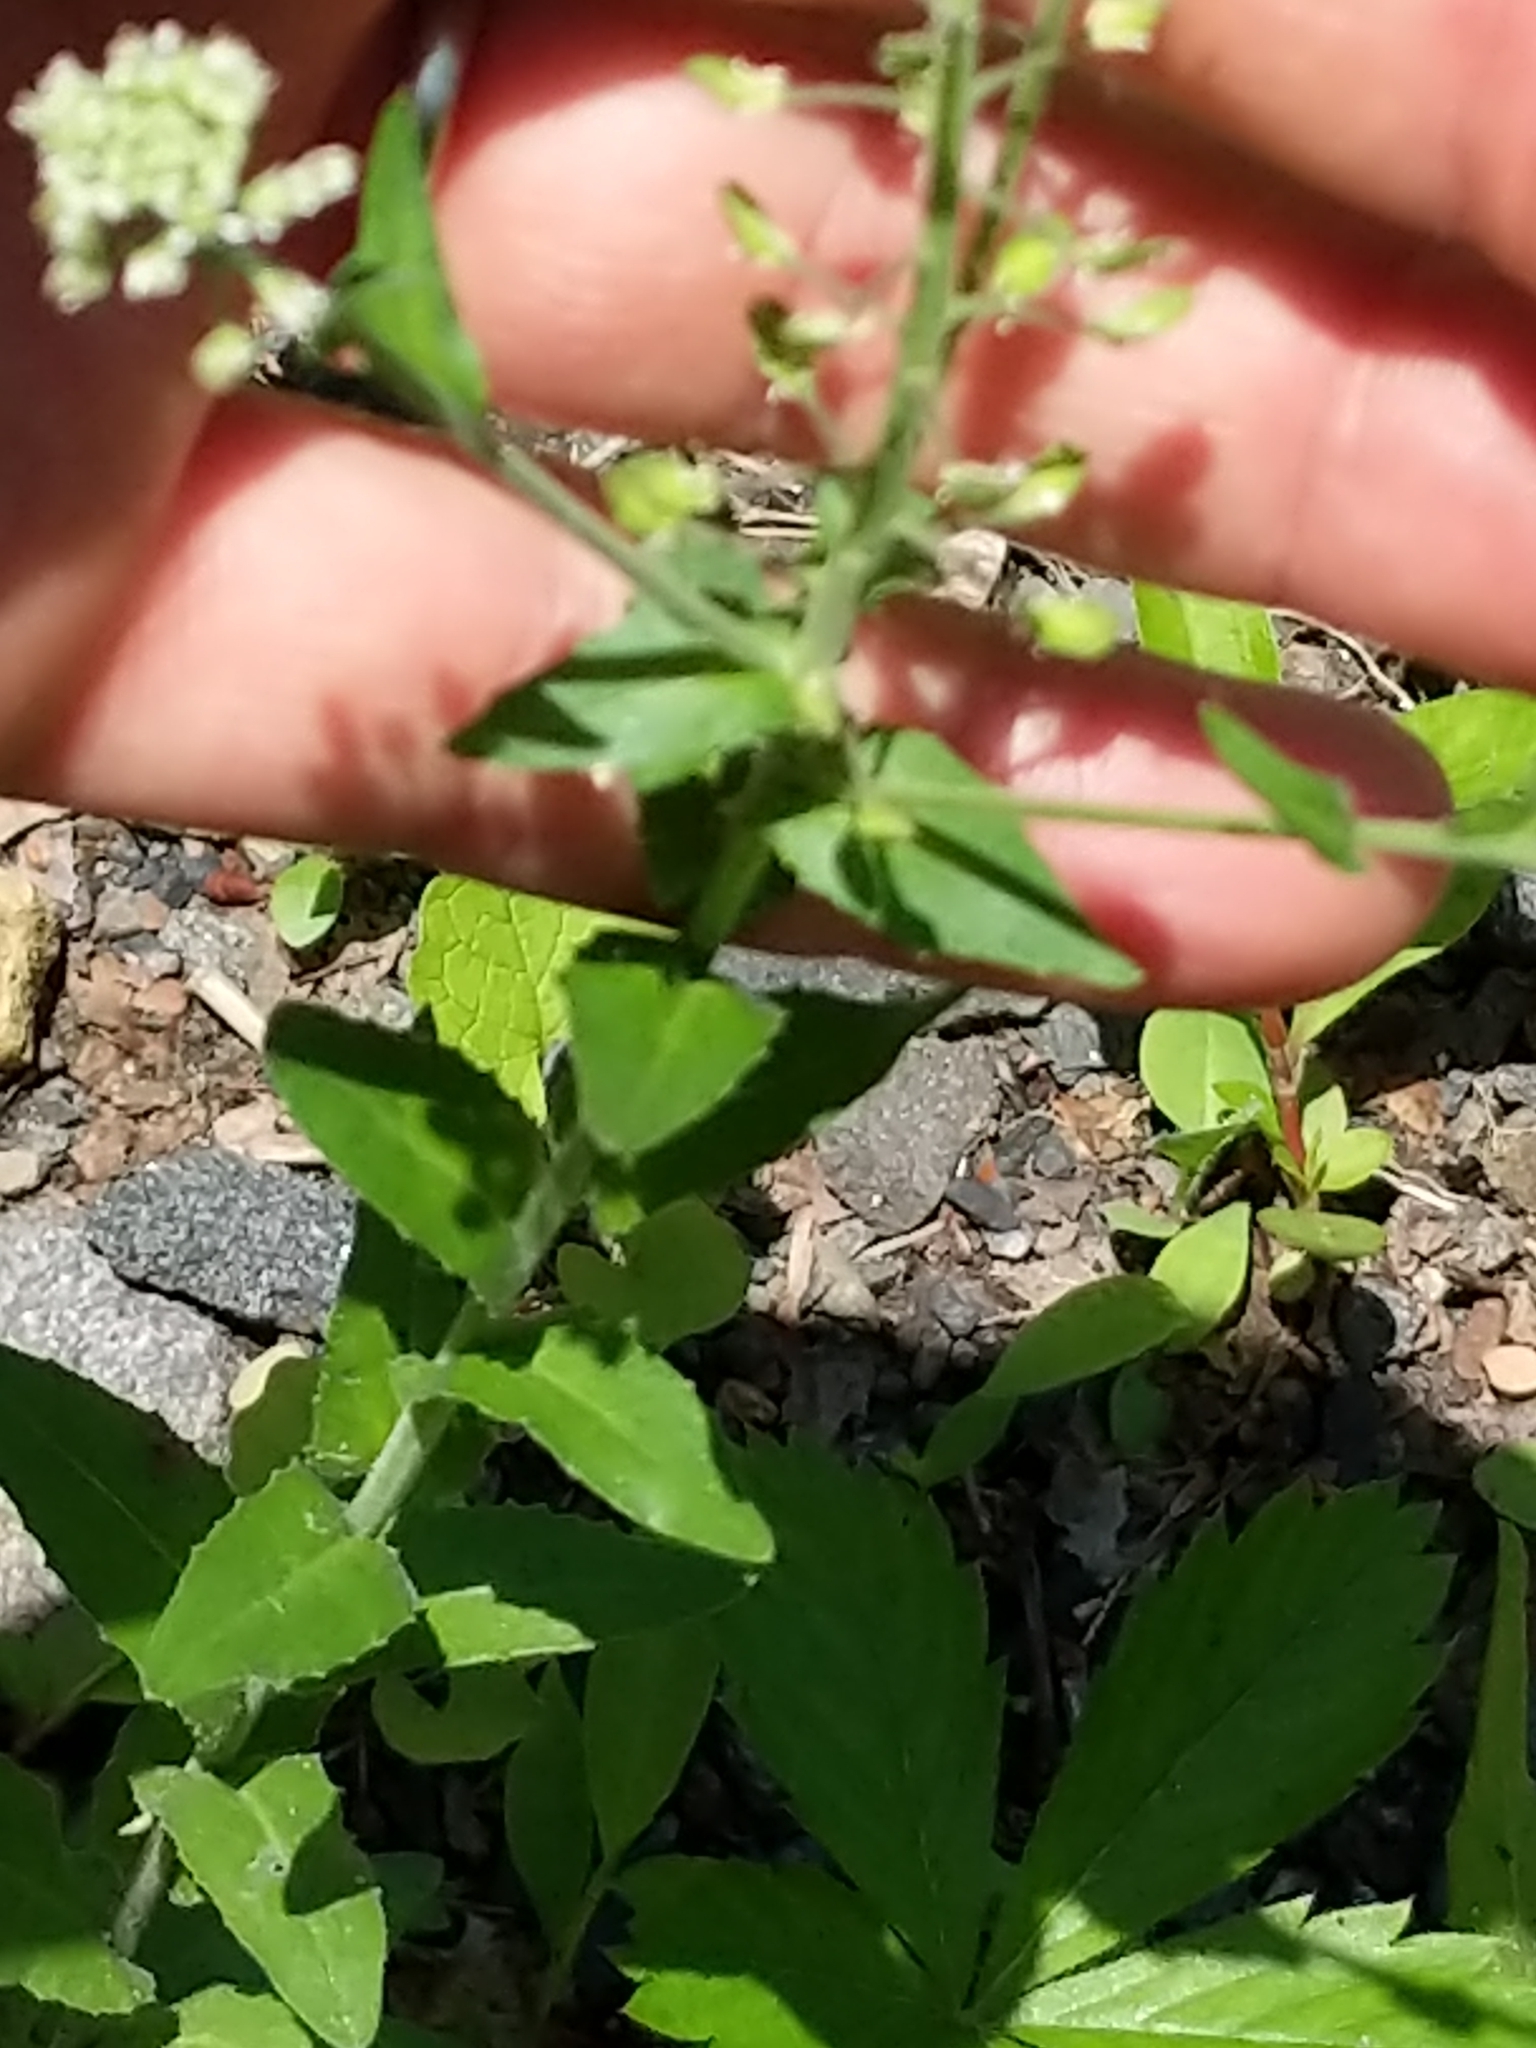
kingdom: Plantae
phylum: Tracheophyta
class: Magnoliopsida
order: Brassicales
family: Brassicaceae
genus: Lepidium
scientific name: Lepidium campestre
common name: Field pepperwort
